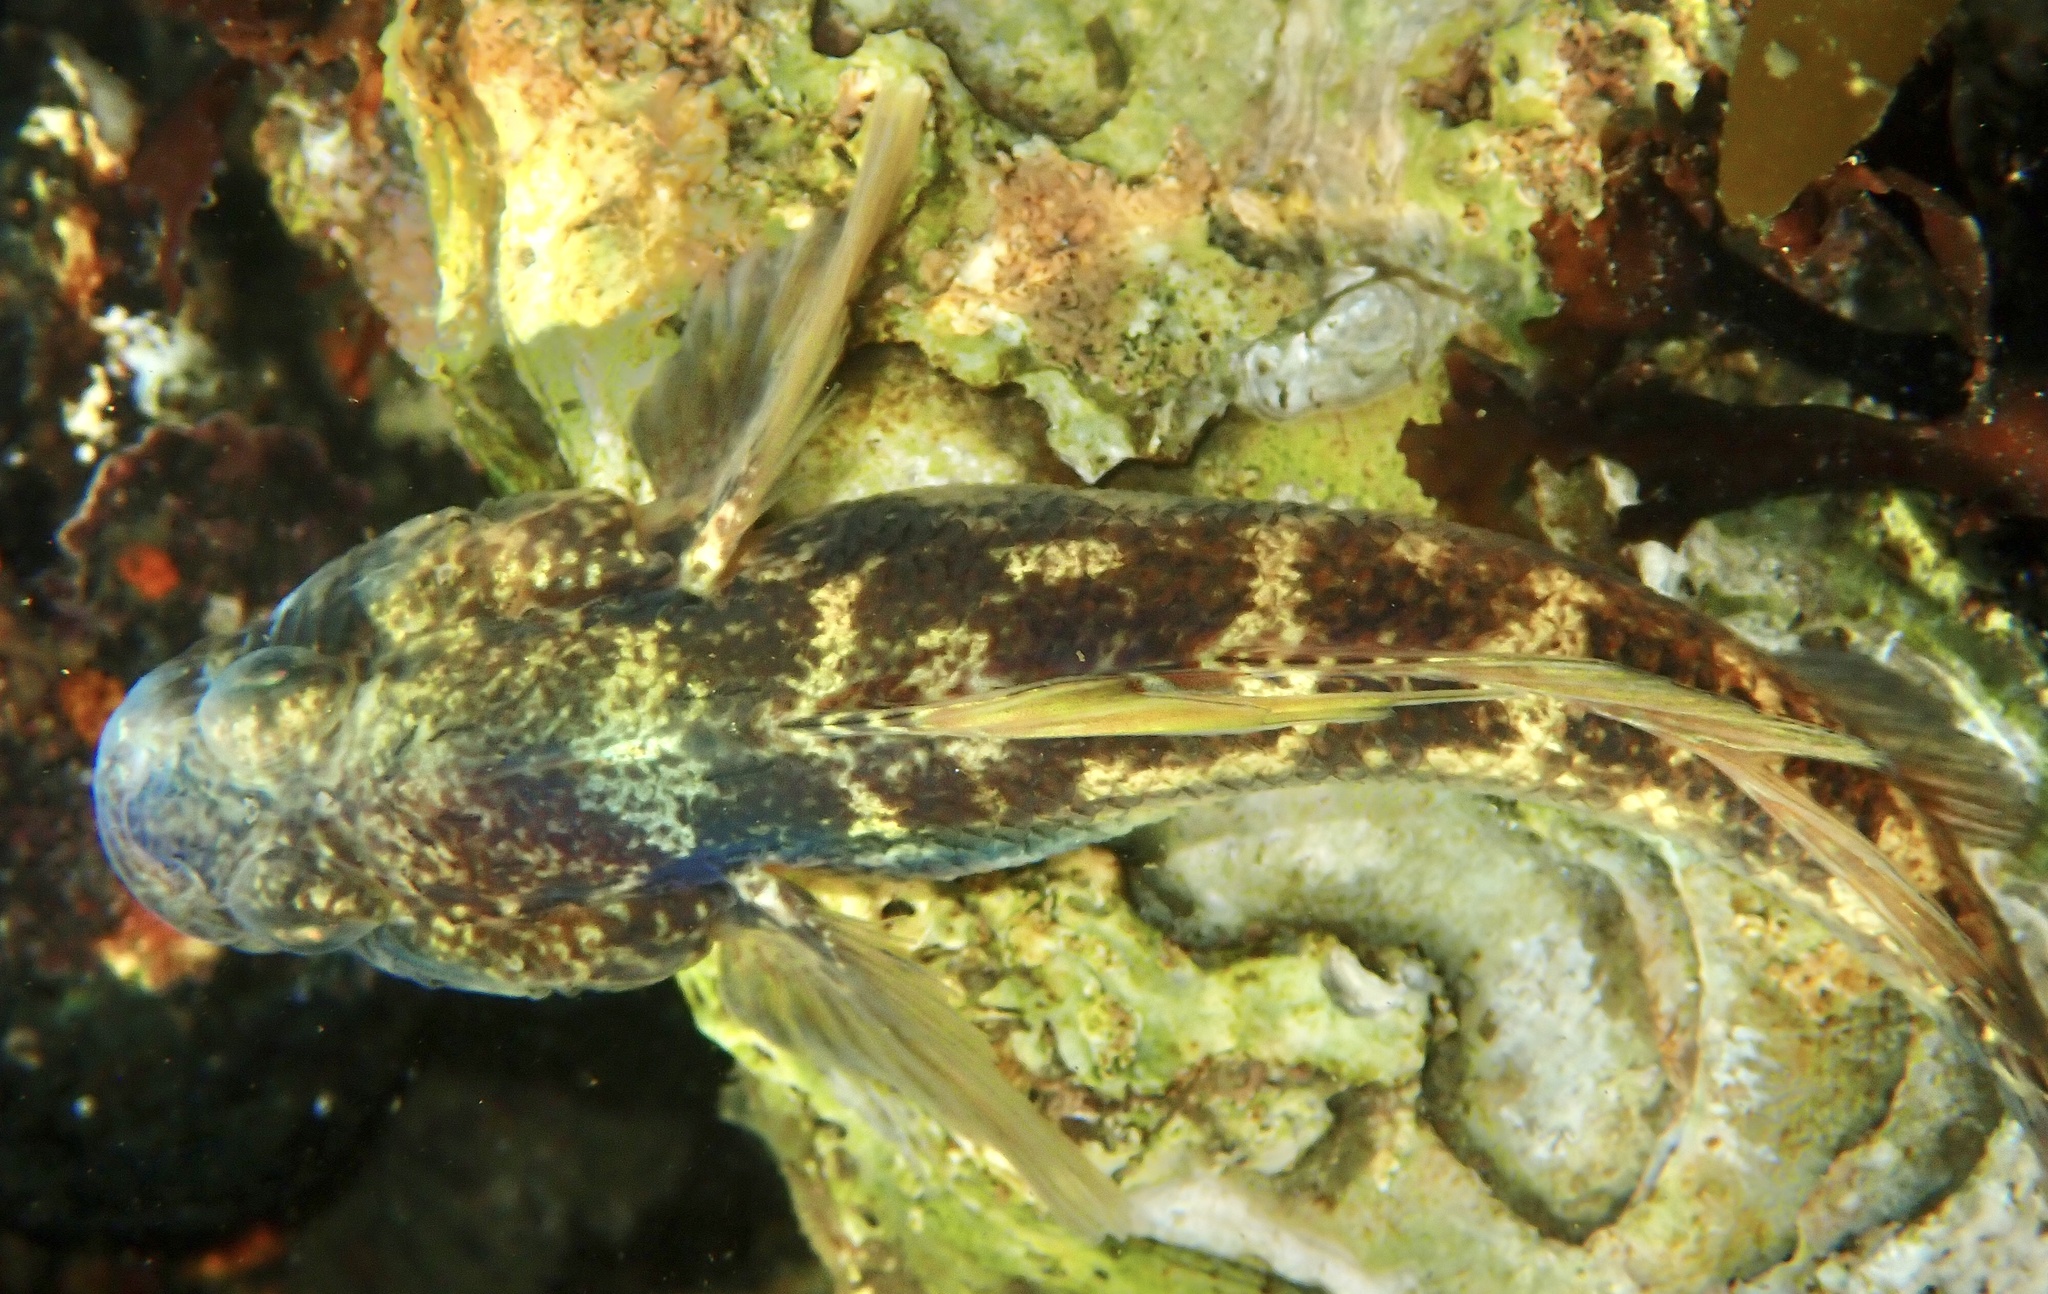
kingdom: Animalia
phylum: Chordata
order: Perciformes
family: Gobiidae
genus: Gobius
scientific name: Gobius niger
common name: Black goby
